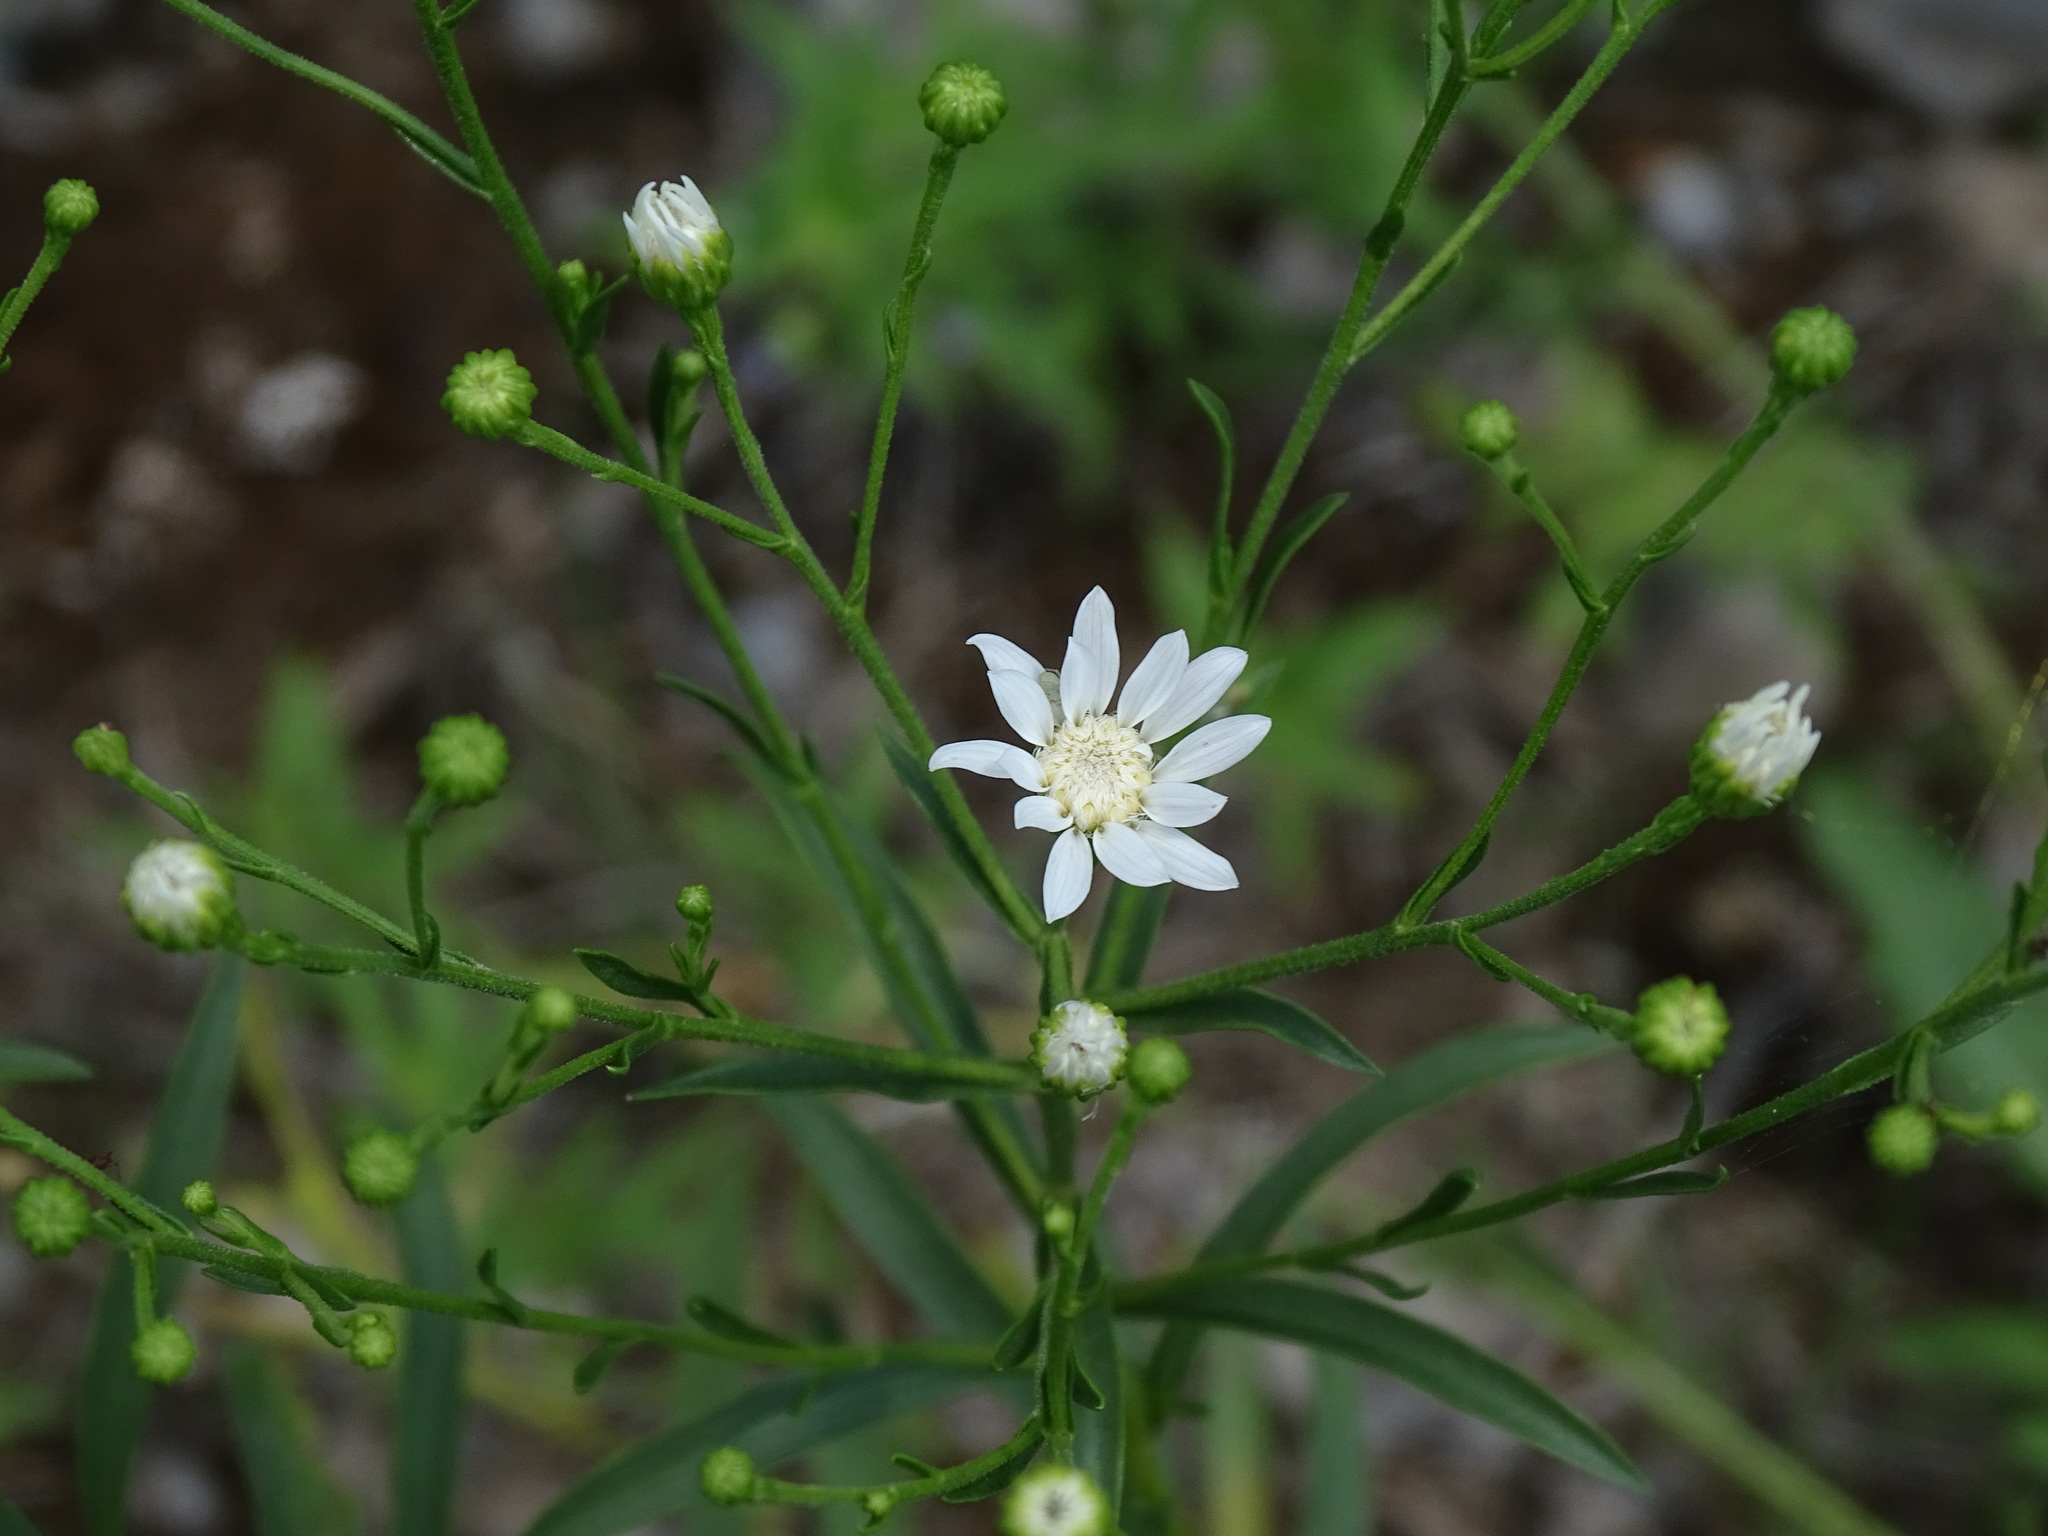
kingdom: Plantae
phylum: Tracheophyta
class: Magnoliopsida
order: Asterales
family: Asteraceae
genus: Solidago
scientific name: Solidago ptarmicoides
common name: White flat-top goldenrod
